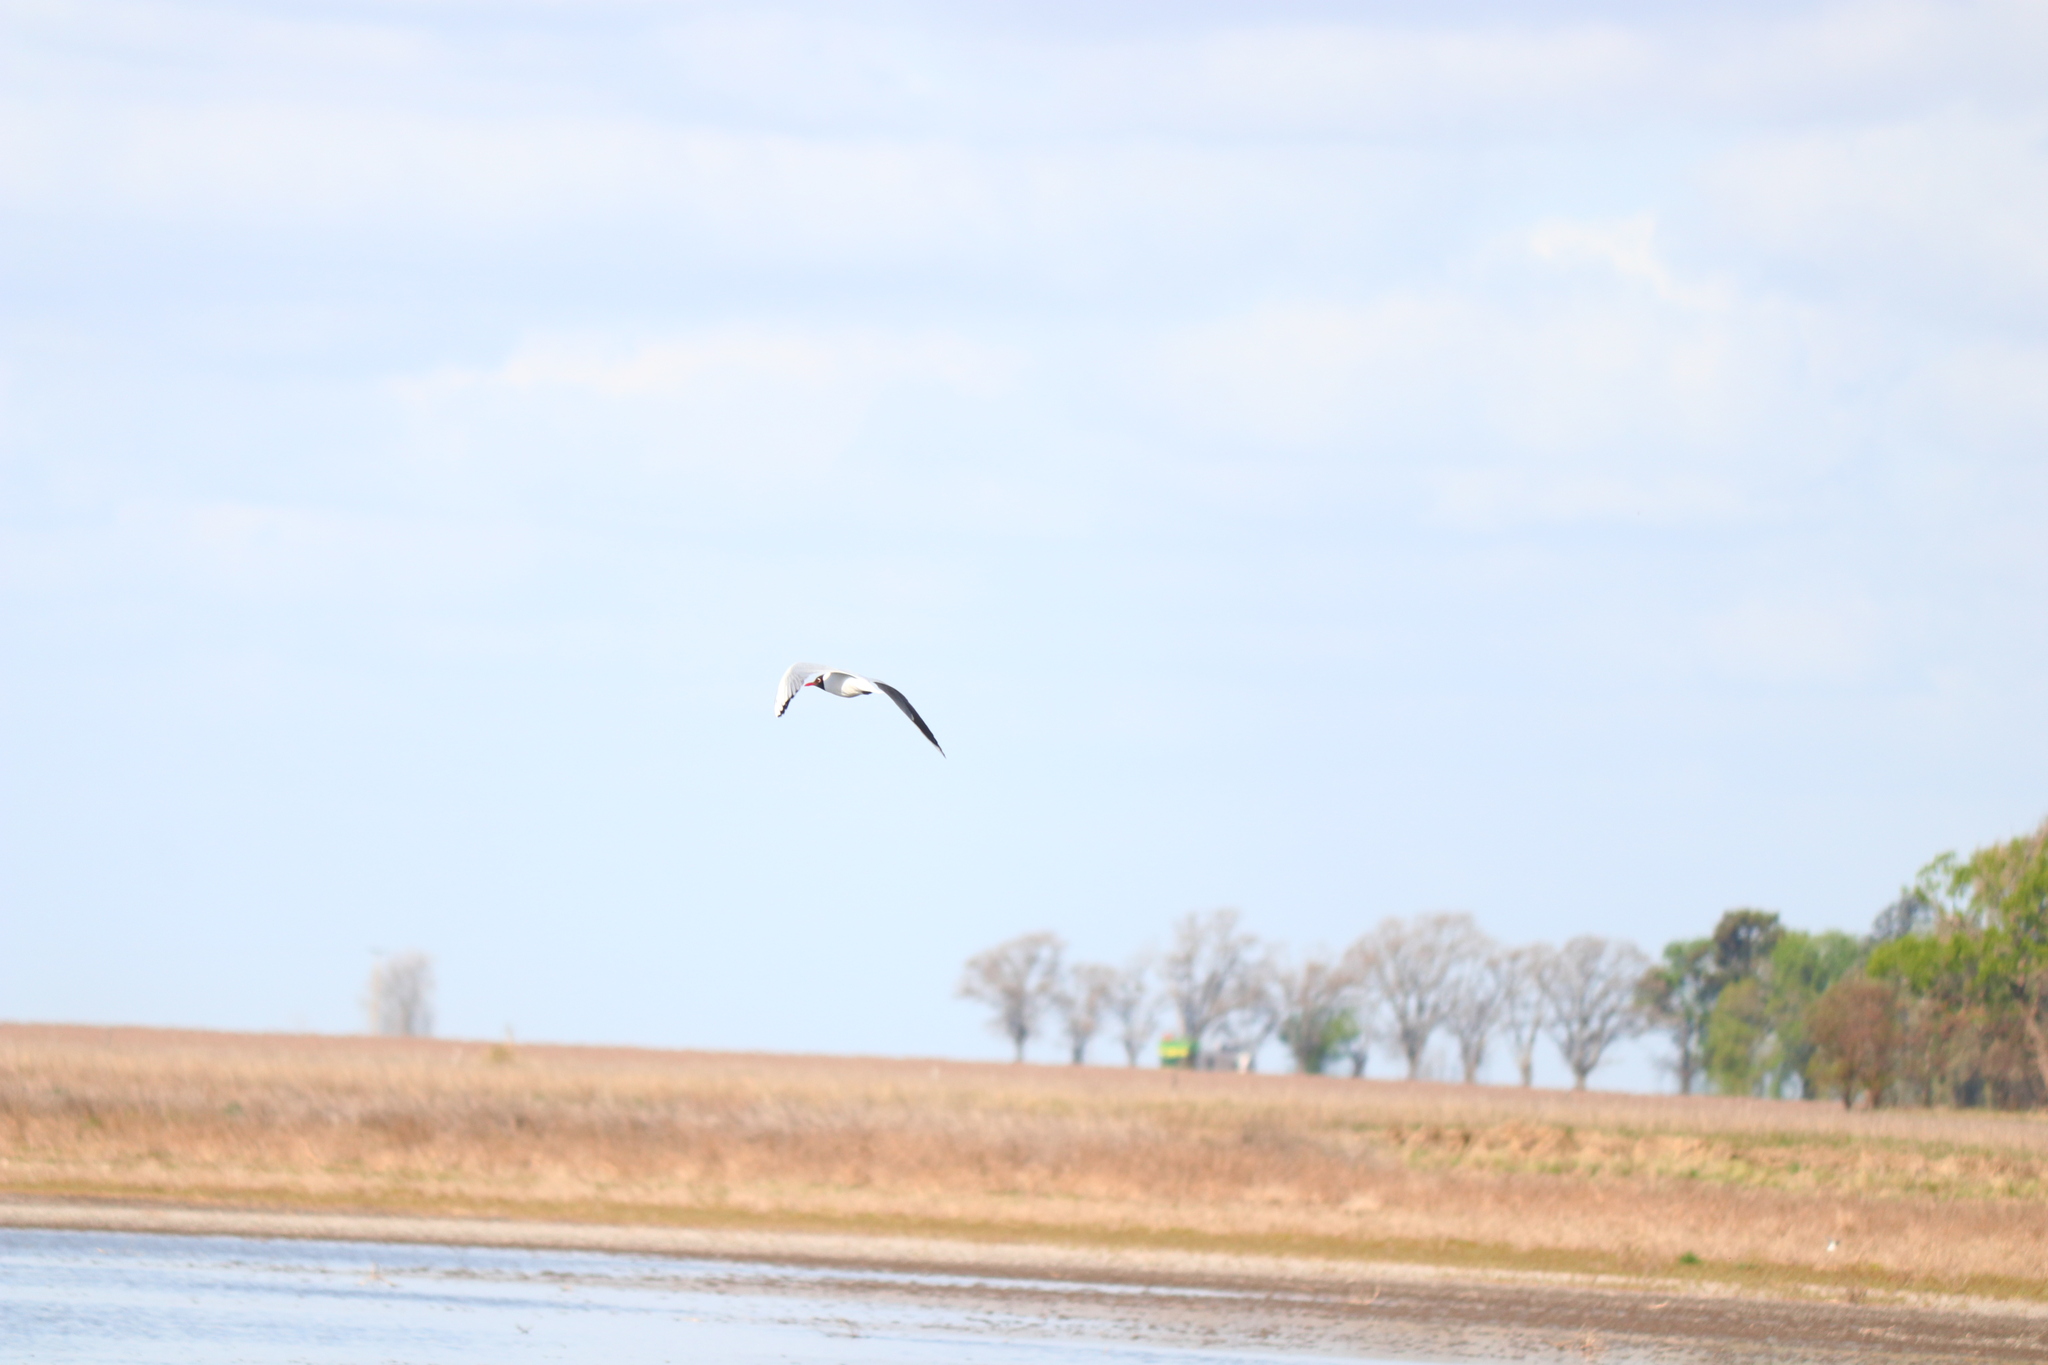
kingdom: Animalia
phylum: Chordata
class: Aves
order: Charadriiformes
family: Laridae
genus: Chroicocephalus
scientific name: Chroicocephalus maculipennis
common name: Brown-hooded gull
